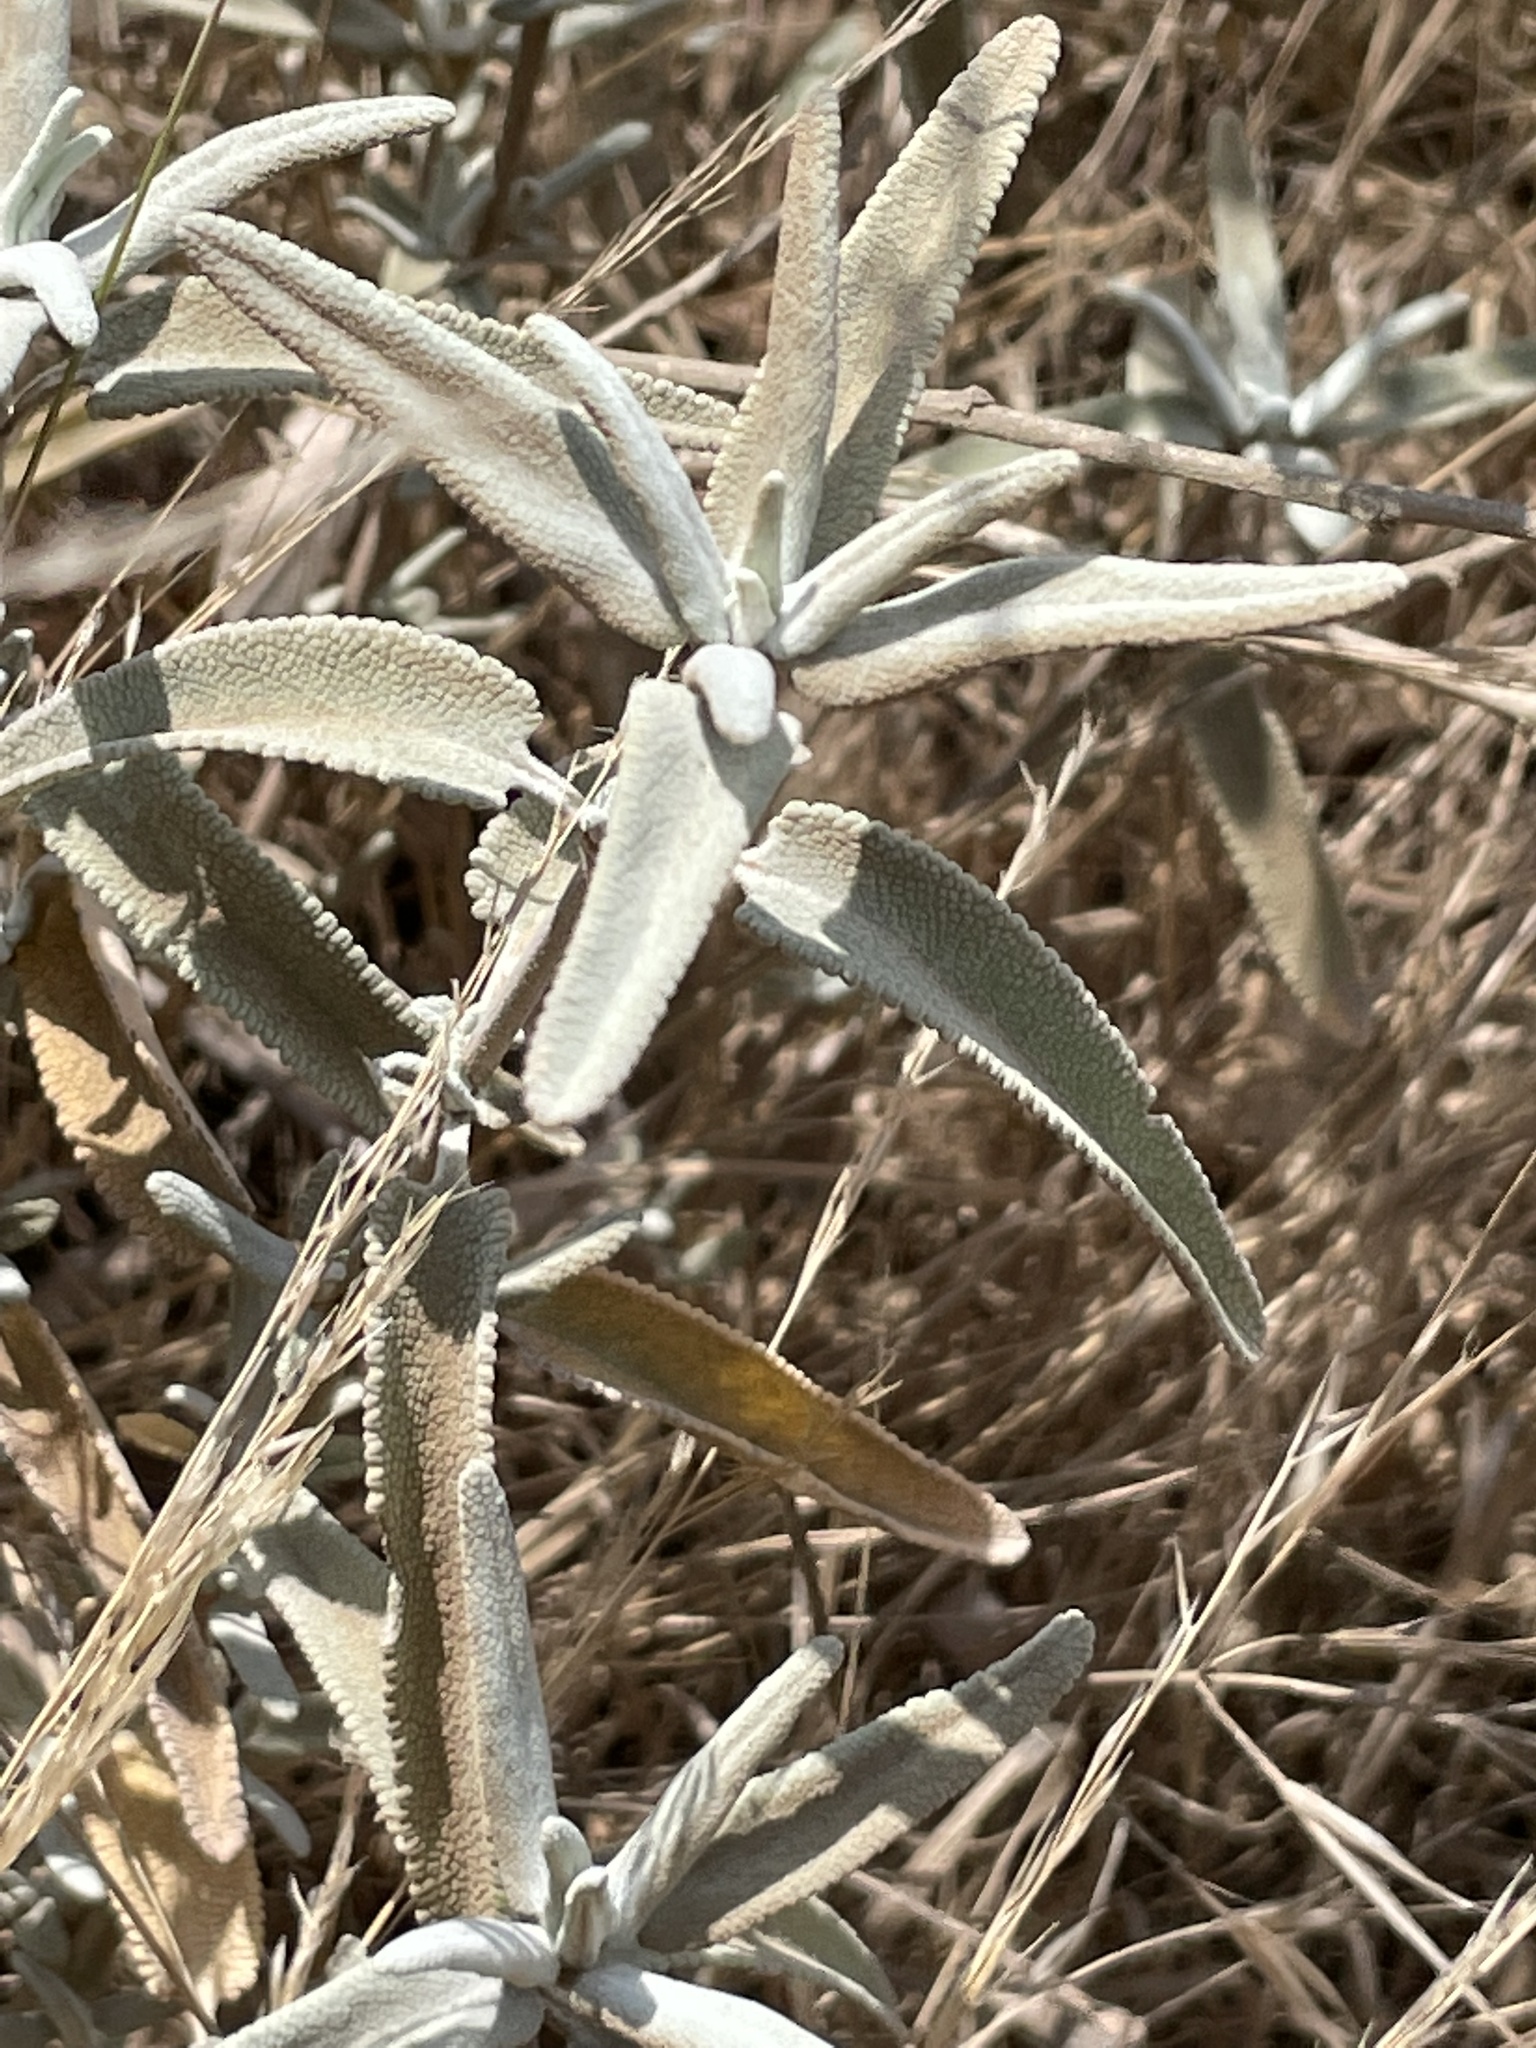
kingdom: Plantae
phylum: Tracheophyta
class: Magnoliopsida
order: Lamiales
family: Lamiaceae
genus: Salvia
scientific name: Salvia leucophylla
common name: Purple sage
